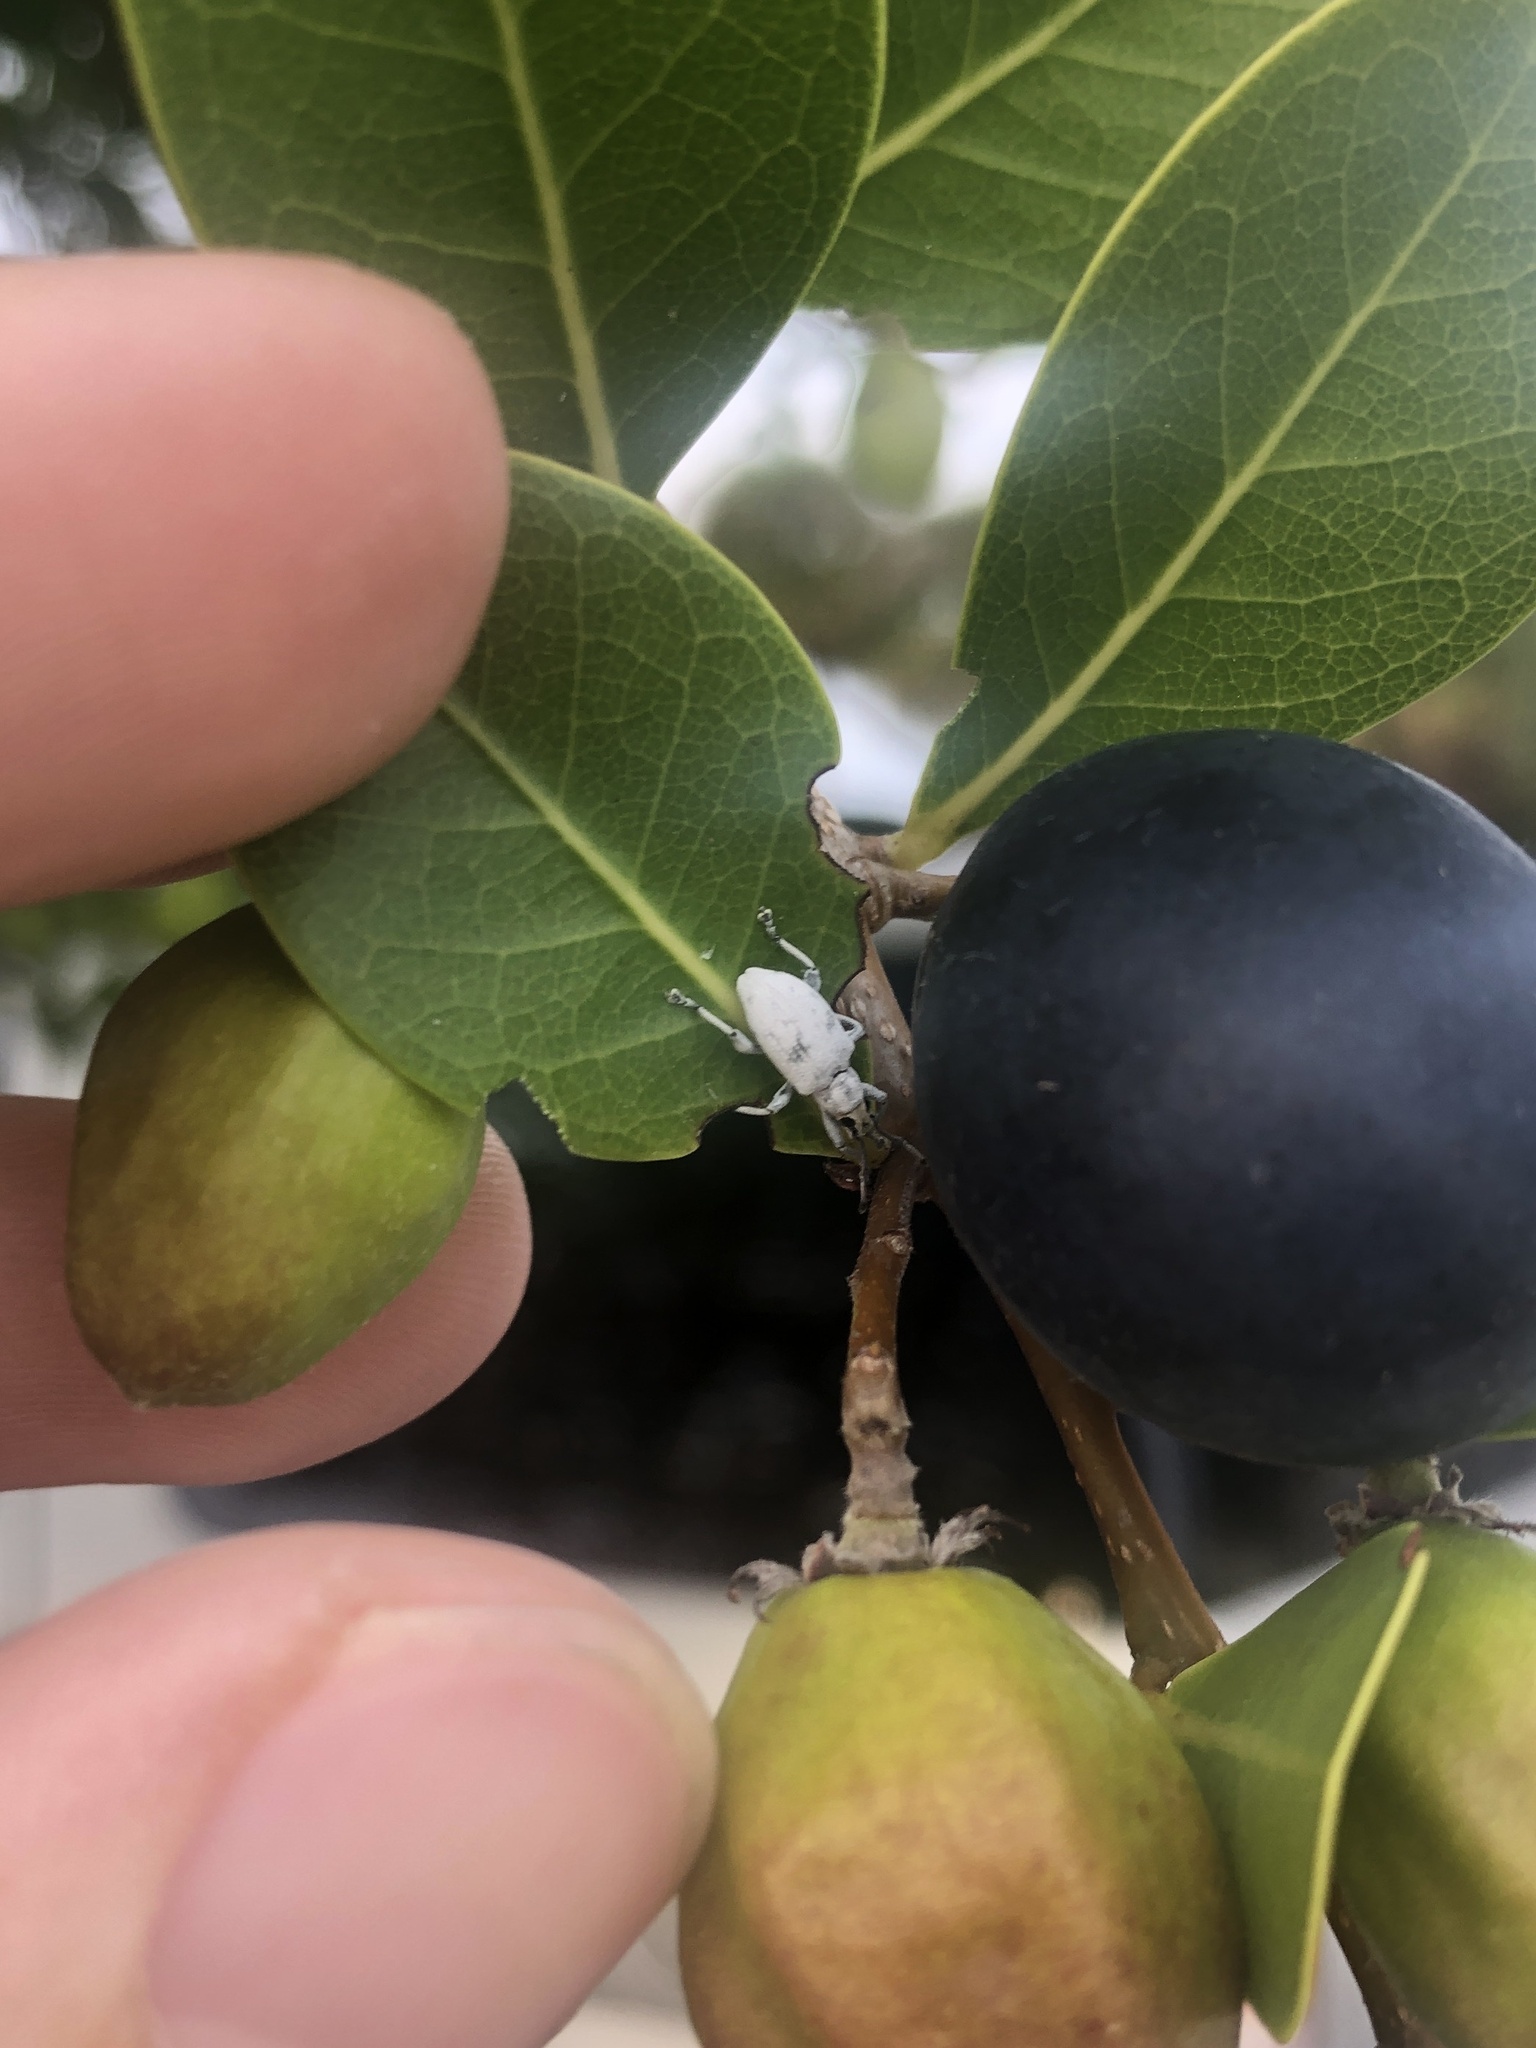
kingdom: Animalia
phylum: Arthropoda
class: Insecta
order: Coleoptera
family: Curculionidae
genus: Myllocerus
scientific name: Myllocerus undecimpustulatus
